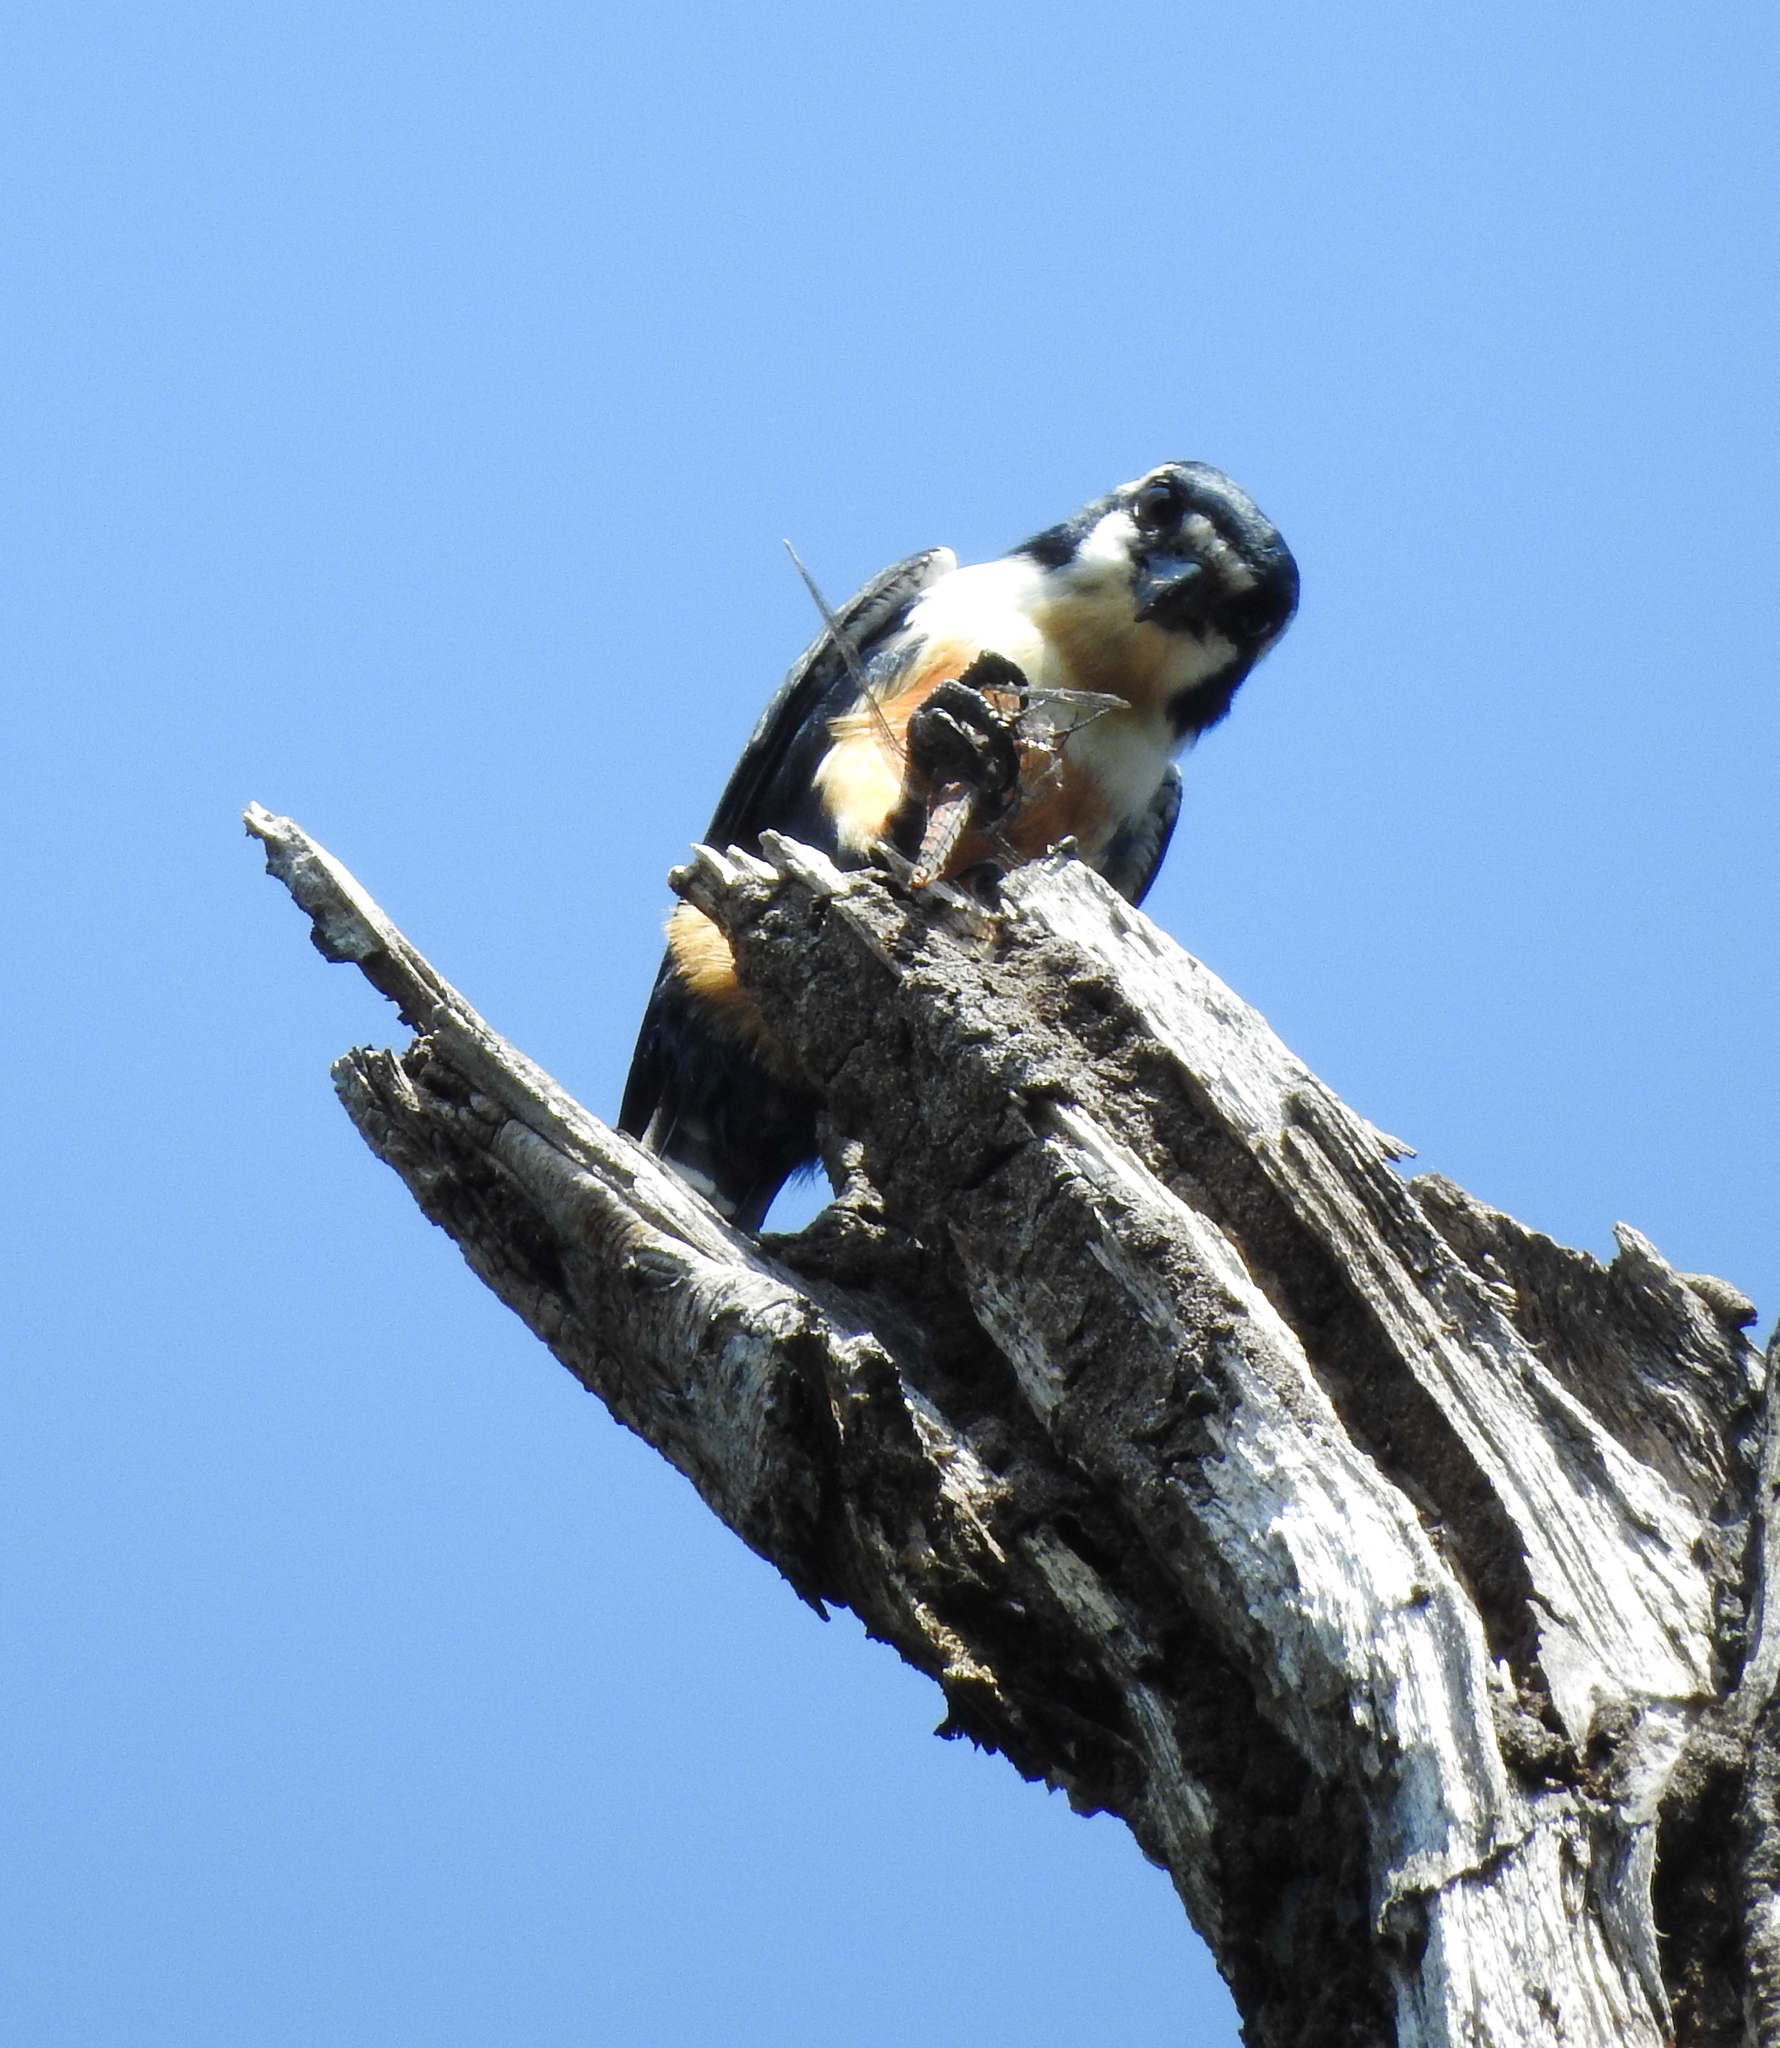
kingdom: Animalia
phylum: Chordata
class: Aves
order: Falconiformes
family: Falconidae
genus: Microhierax
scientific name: Microhierax fringillarius
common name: Black-thighed falconet
